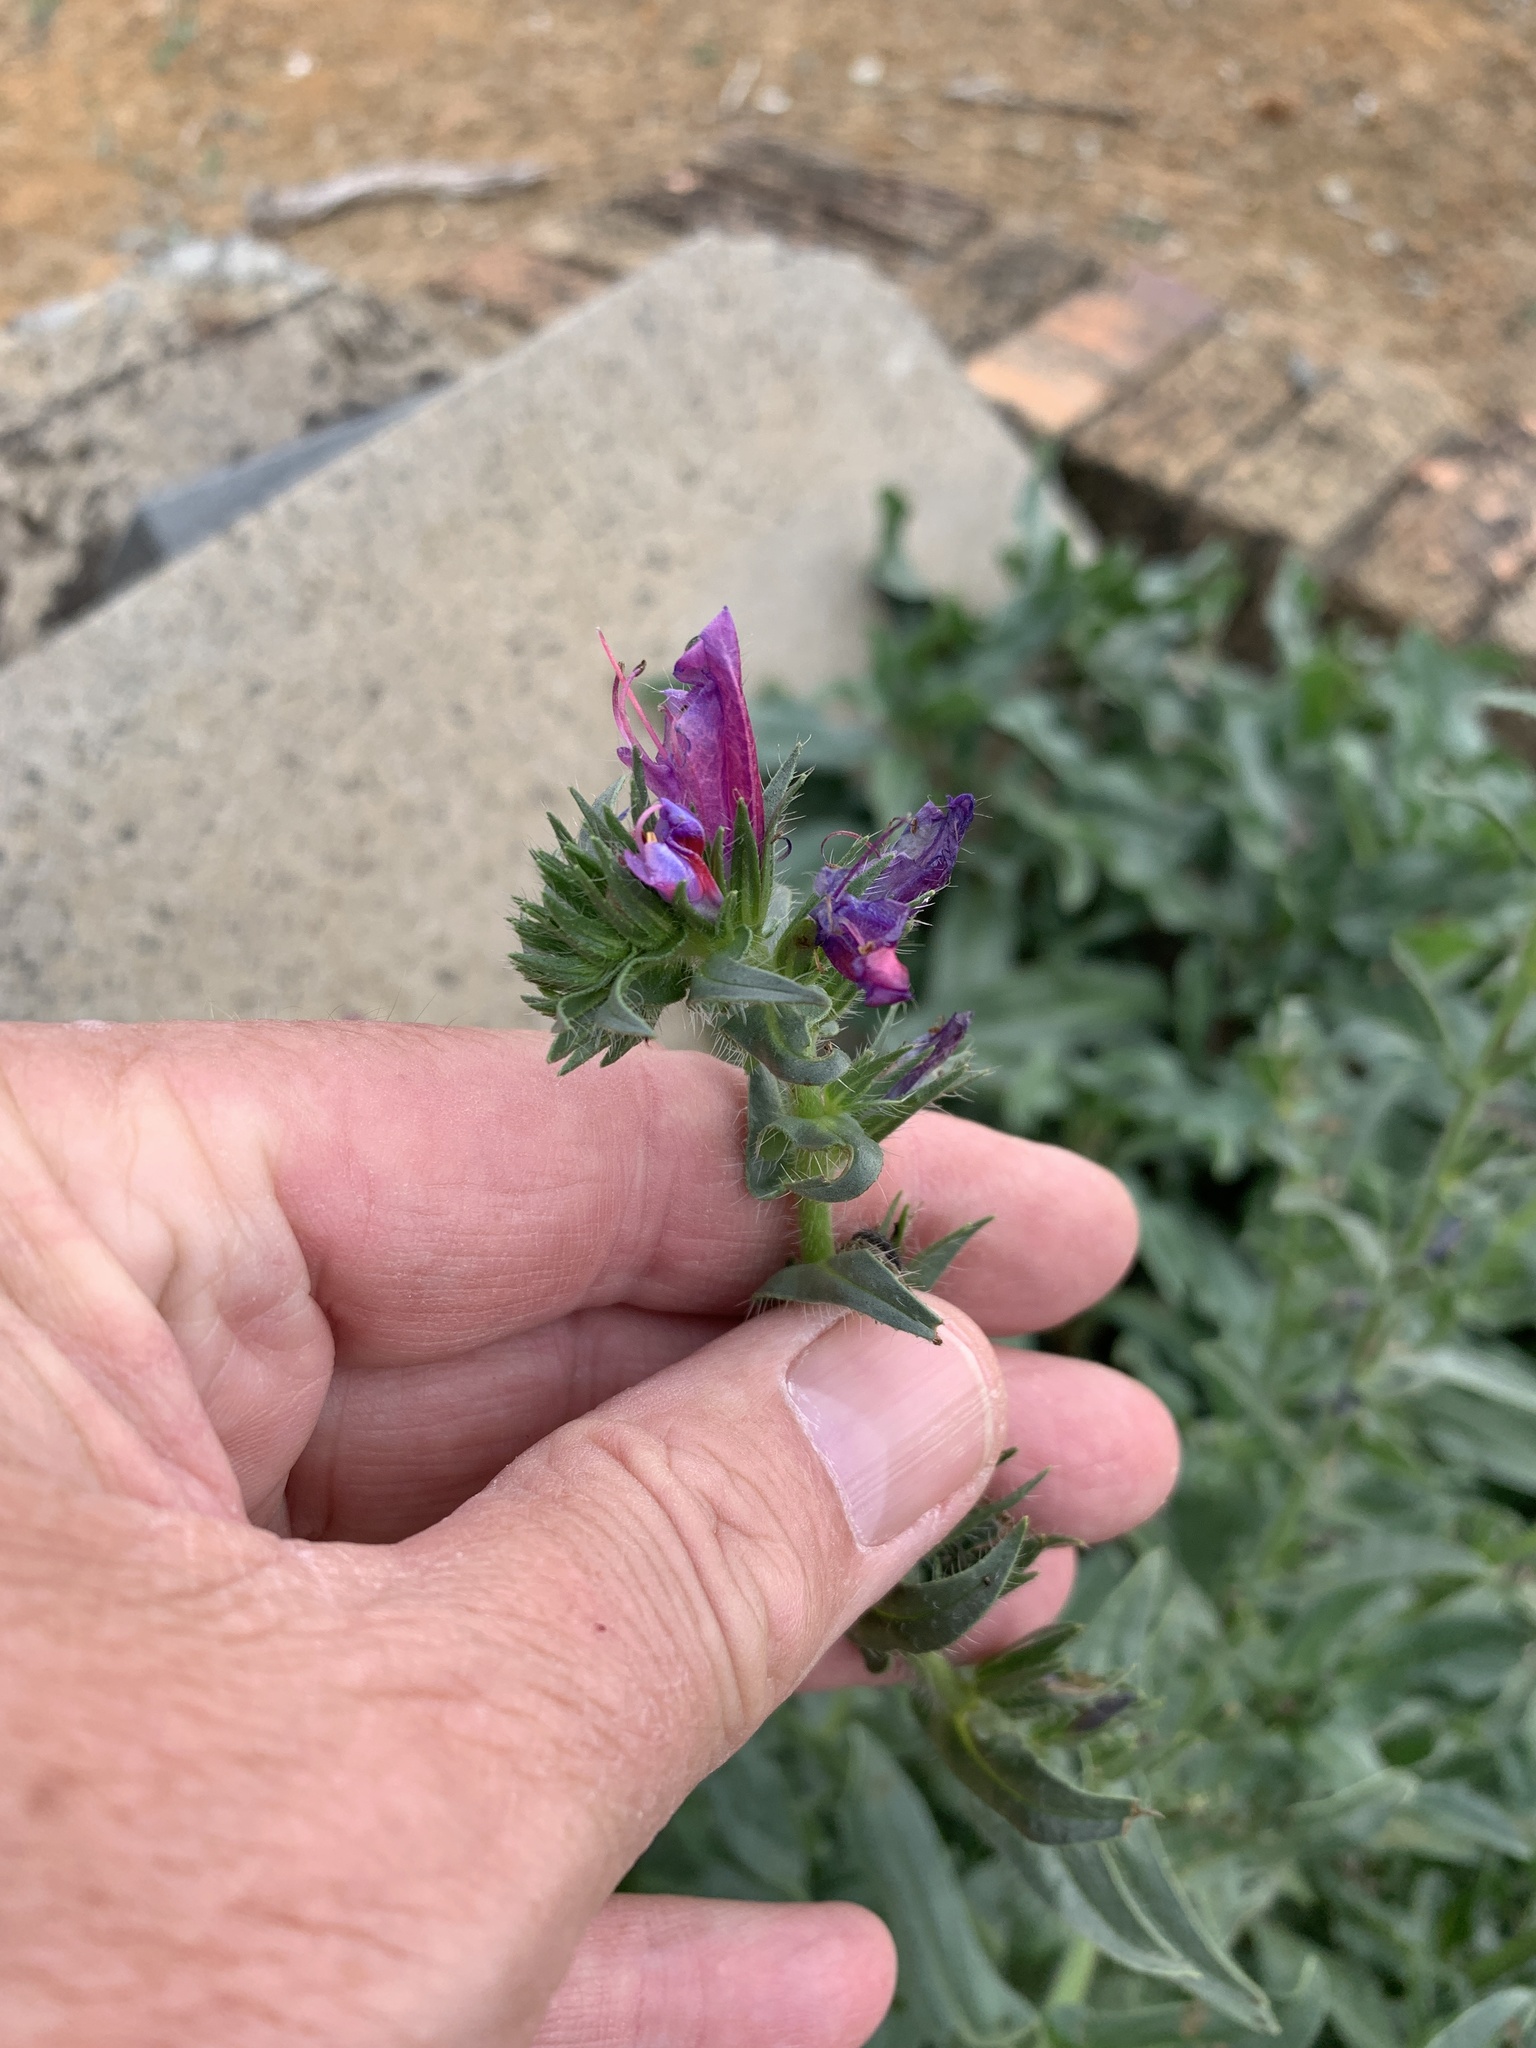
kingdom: Plantae
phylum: Tracheophyta
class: Magnoliopsida
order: Boraginales
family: Boraginaceae
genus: Echium
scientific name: Echium plantagineum
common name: Purple viper's-bugloss
